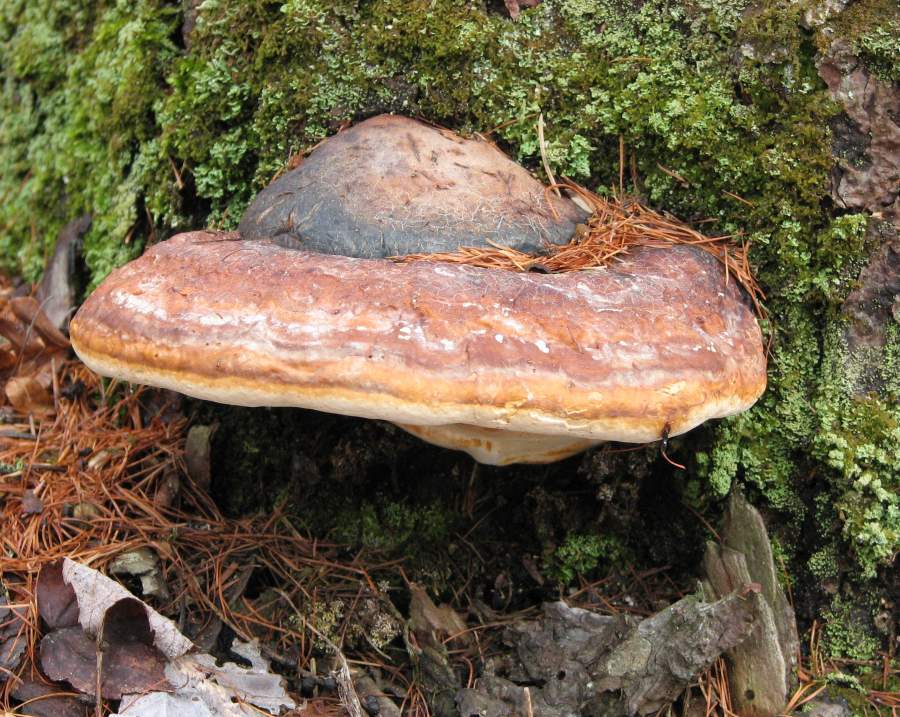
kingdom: Fungi
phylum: Basidiomycota
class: Agaricomycetes
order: Polyporales
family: Fomitopsidaceae
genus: Fomitopsis
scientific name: Fomitopsis mounceae
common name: Northern red belt
